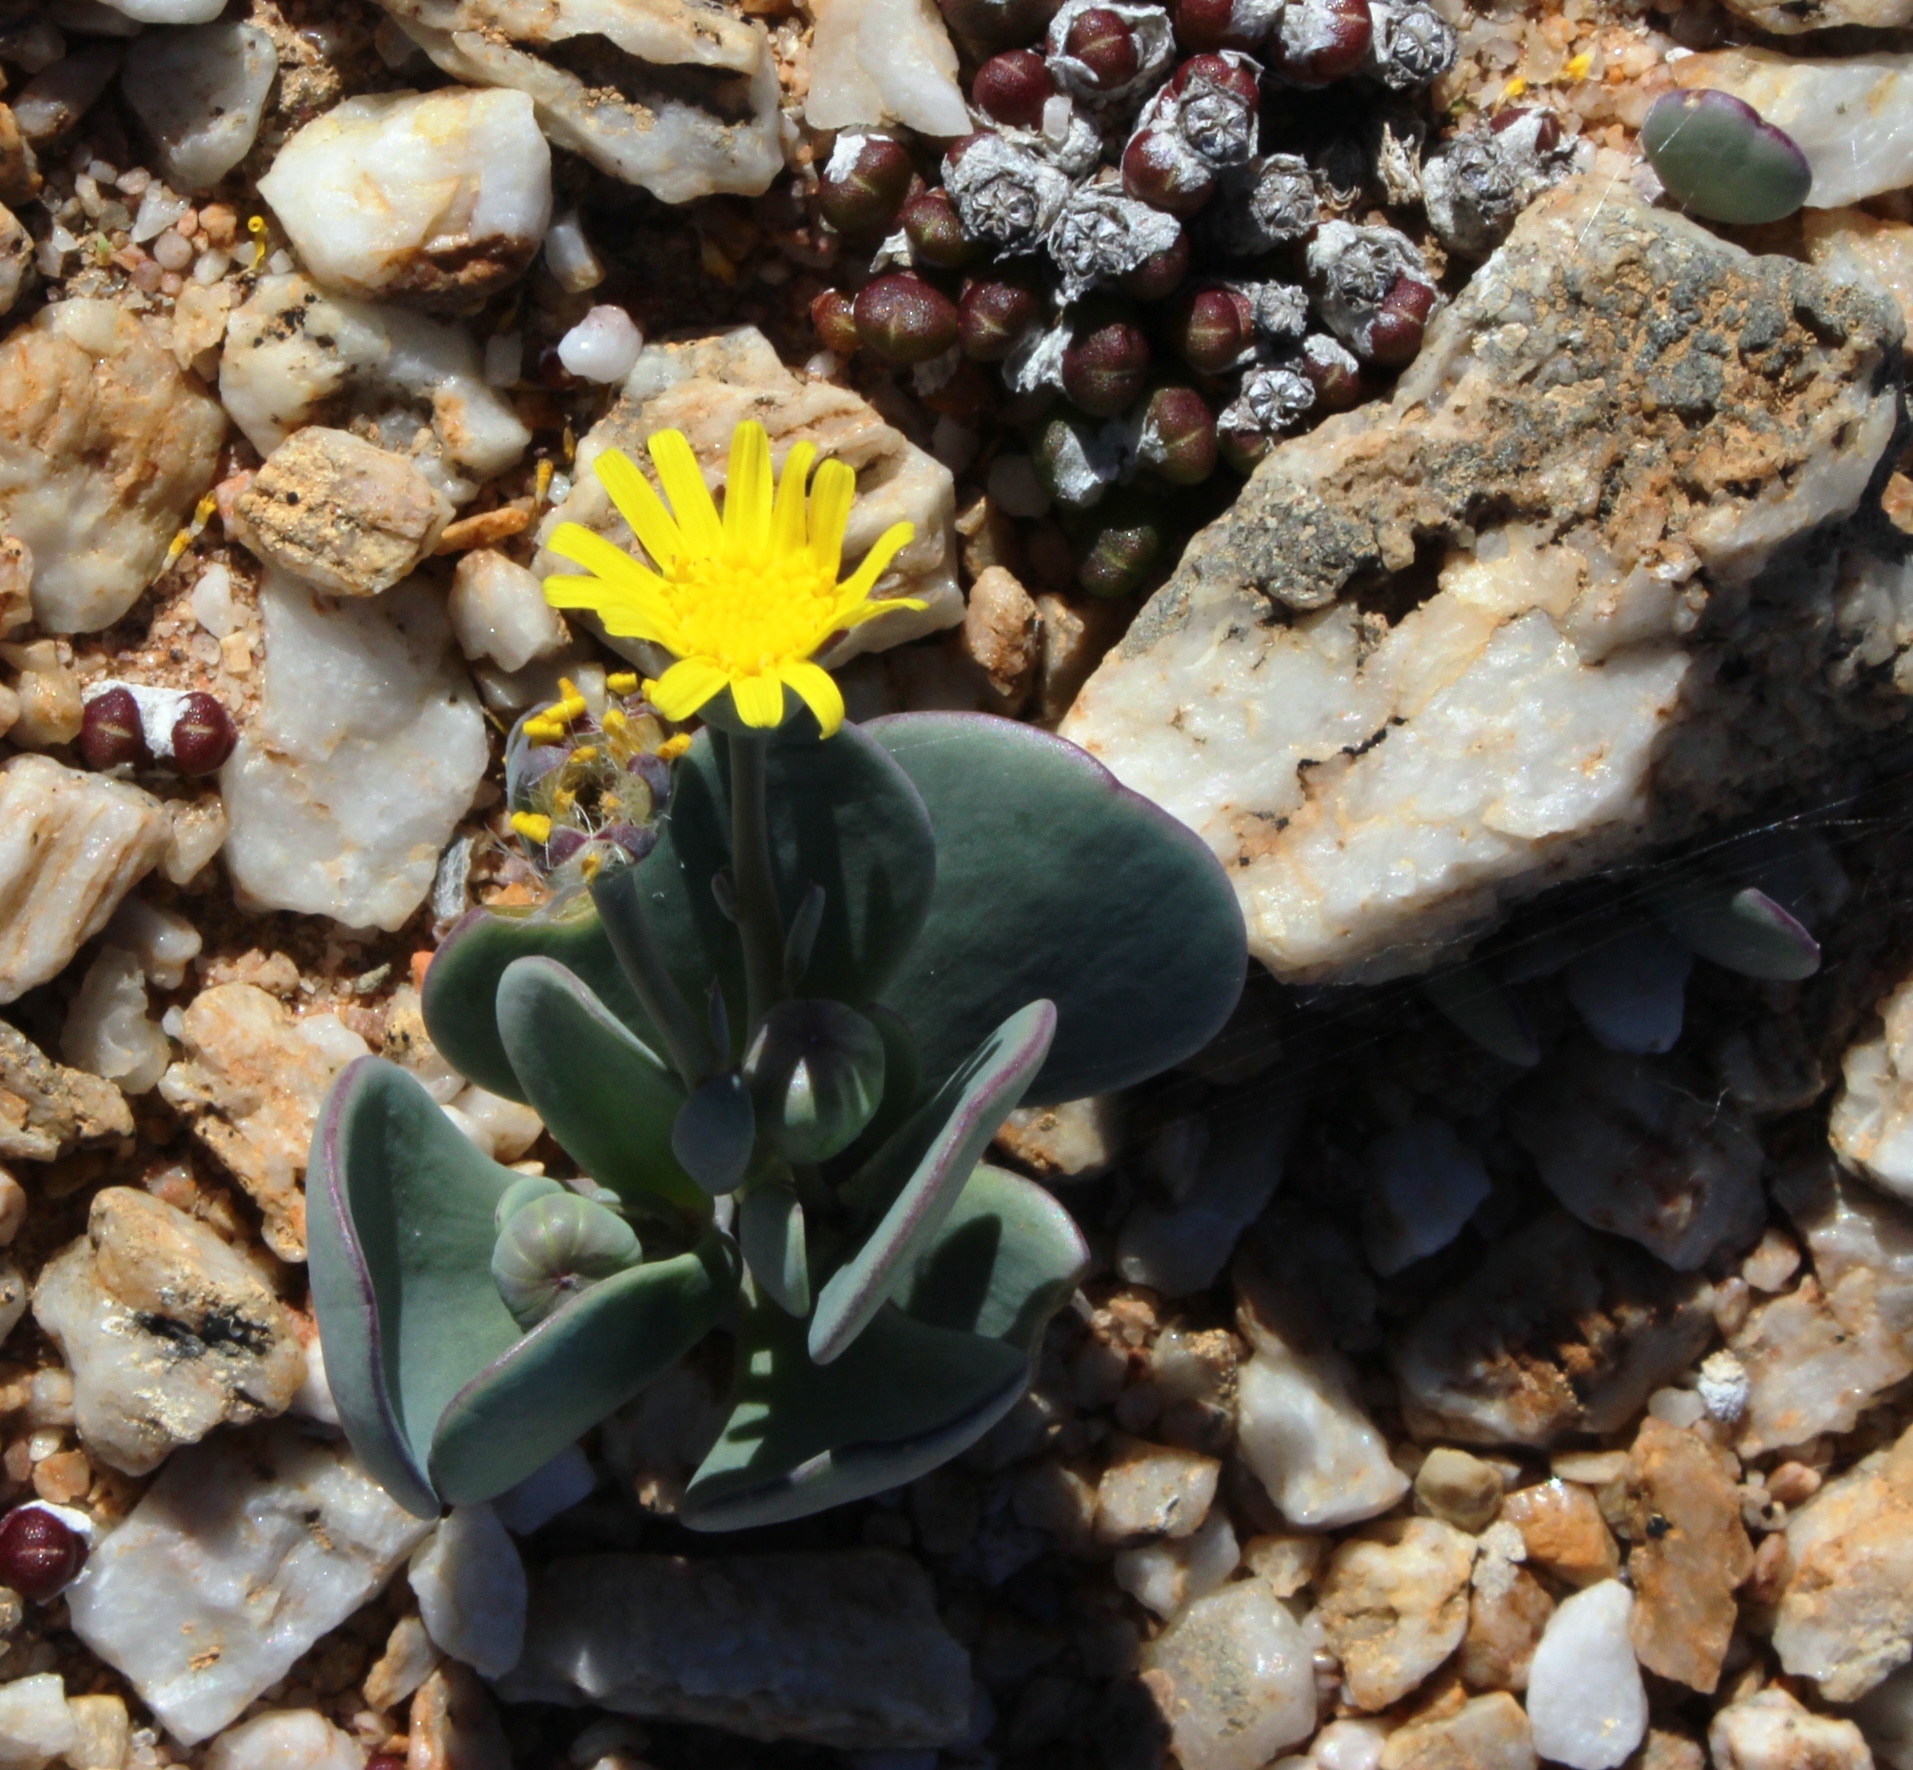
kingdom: Plantae
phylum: Tracheophyta
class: Magnoliopsida
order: Asterales
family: Asteraceae
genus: Othonna
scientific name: Othonna intermedia
